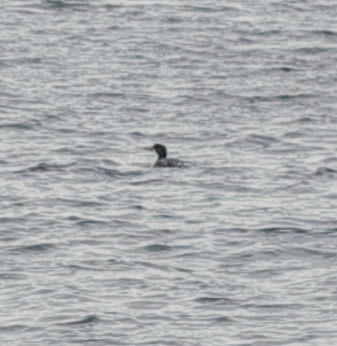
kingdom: Animalia
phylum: Chordata
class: Aves
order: Gaviiformes
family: Gaviidae
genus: Gavia
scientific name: Gavia immer
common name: Common loon
